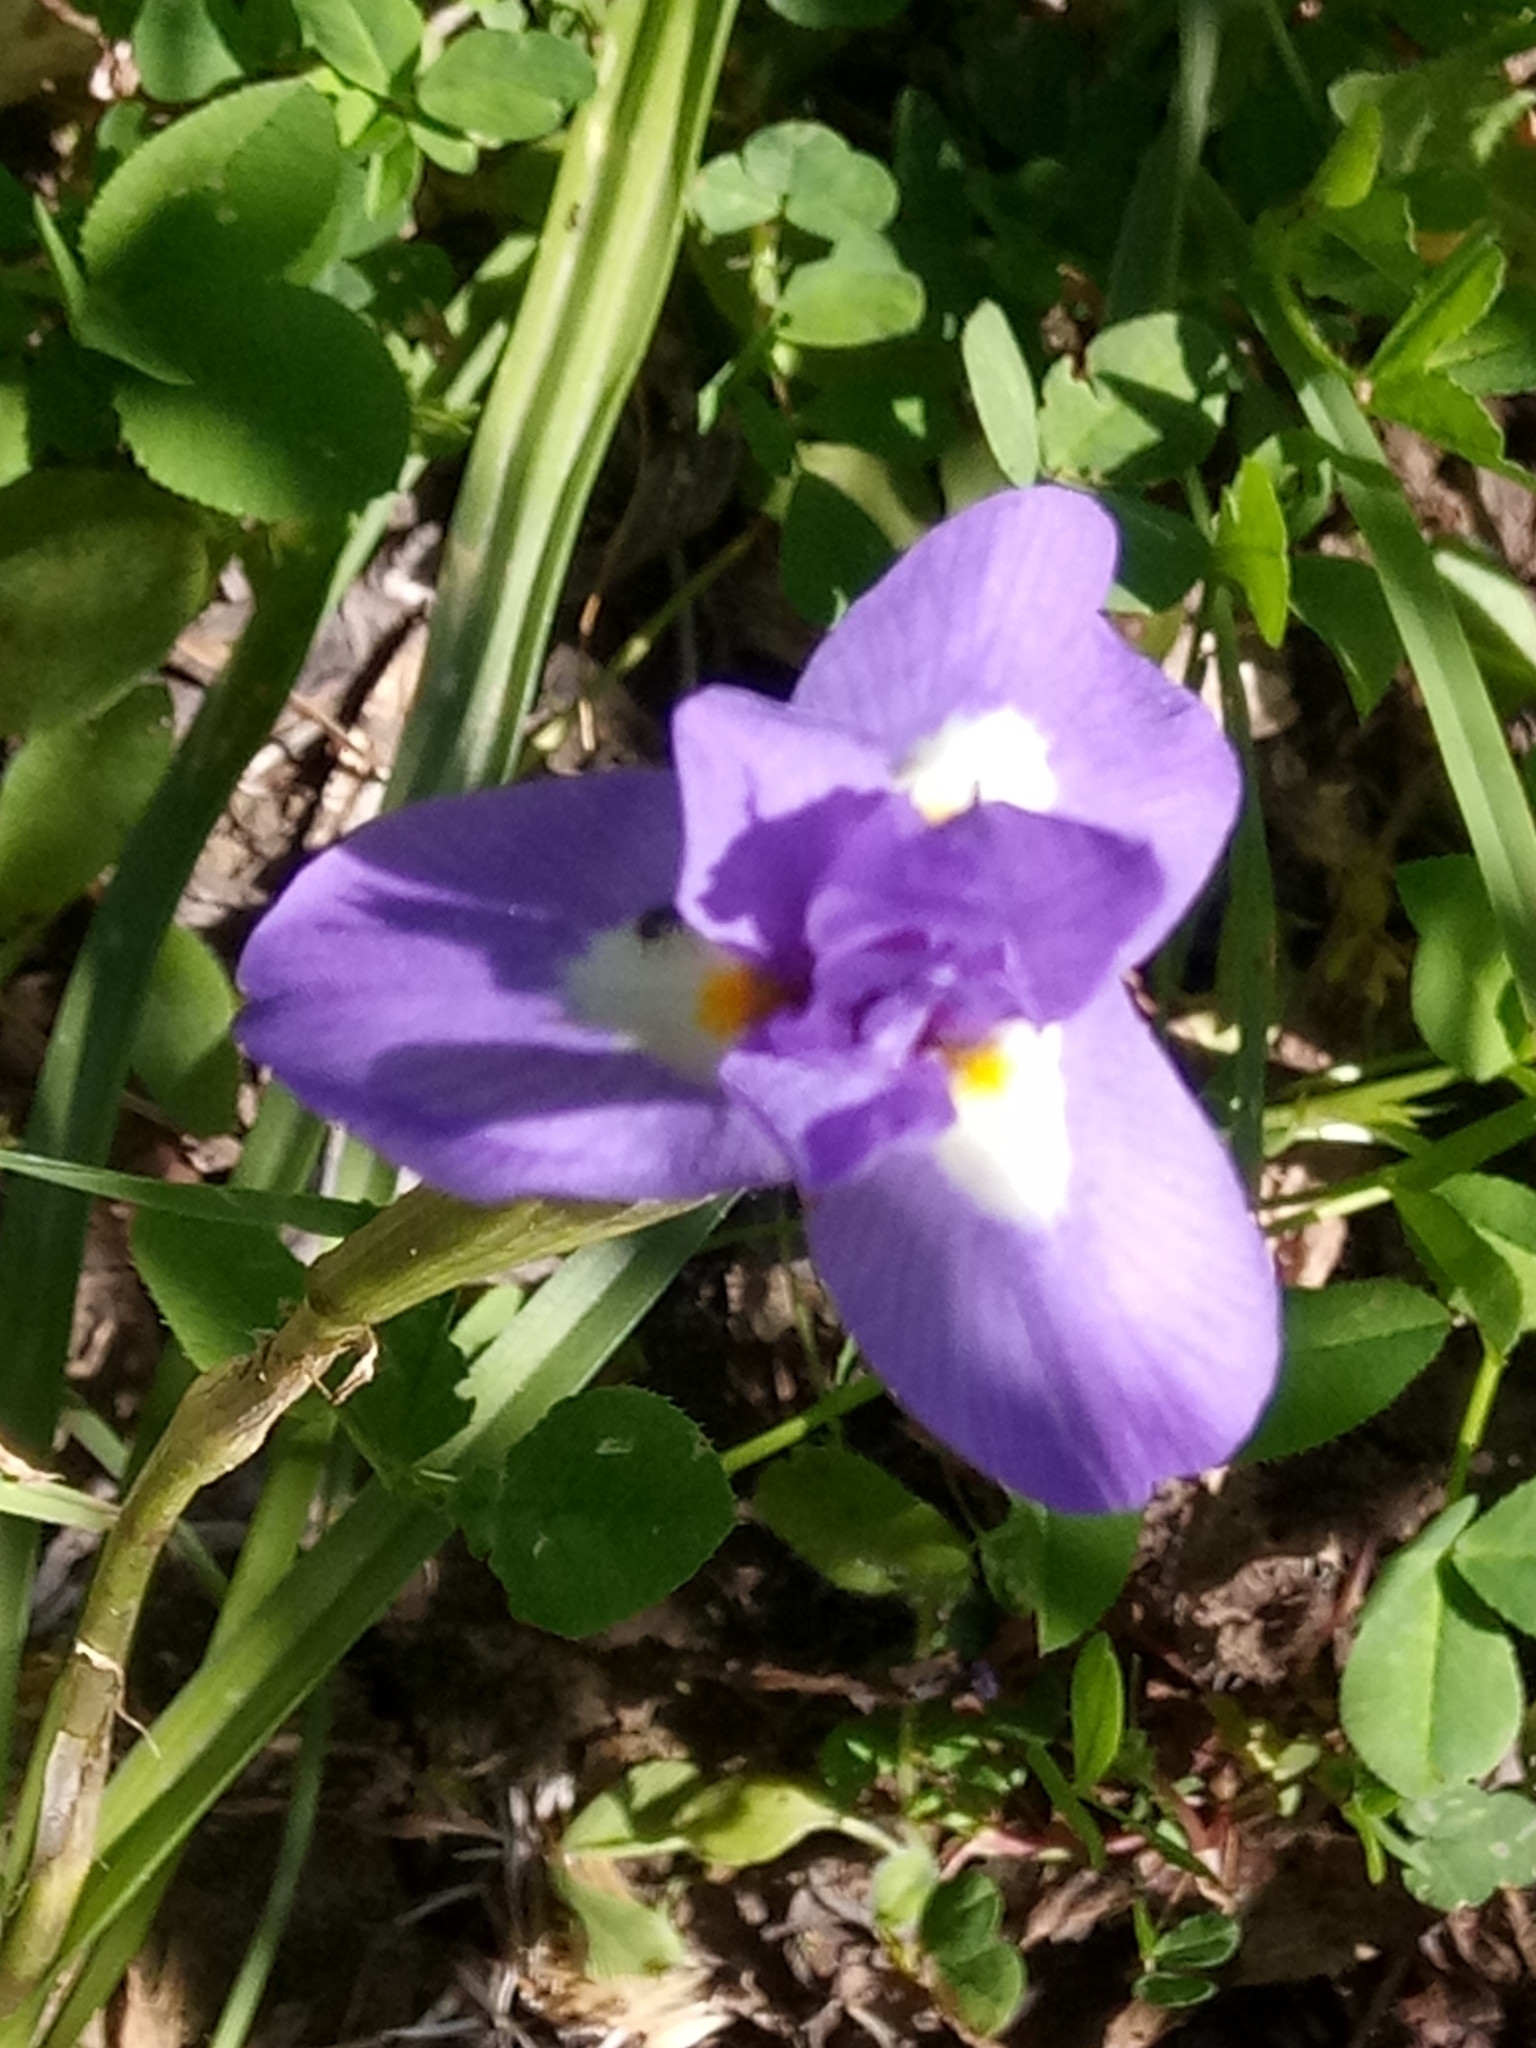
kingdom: Plantae
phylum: Tracheophyta
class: Liliopsida
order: Asparagales
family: Iridaceae
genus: Moraea
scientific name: Moraea sisyrinchium
